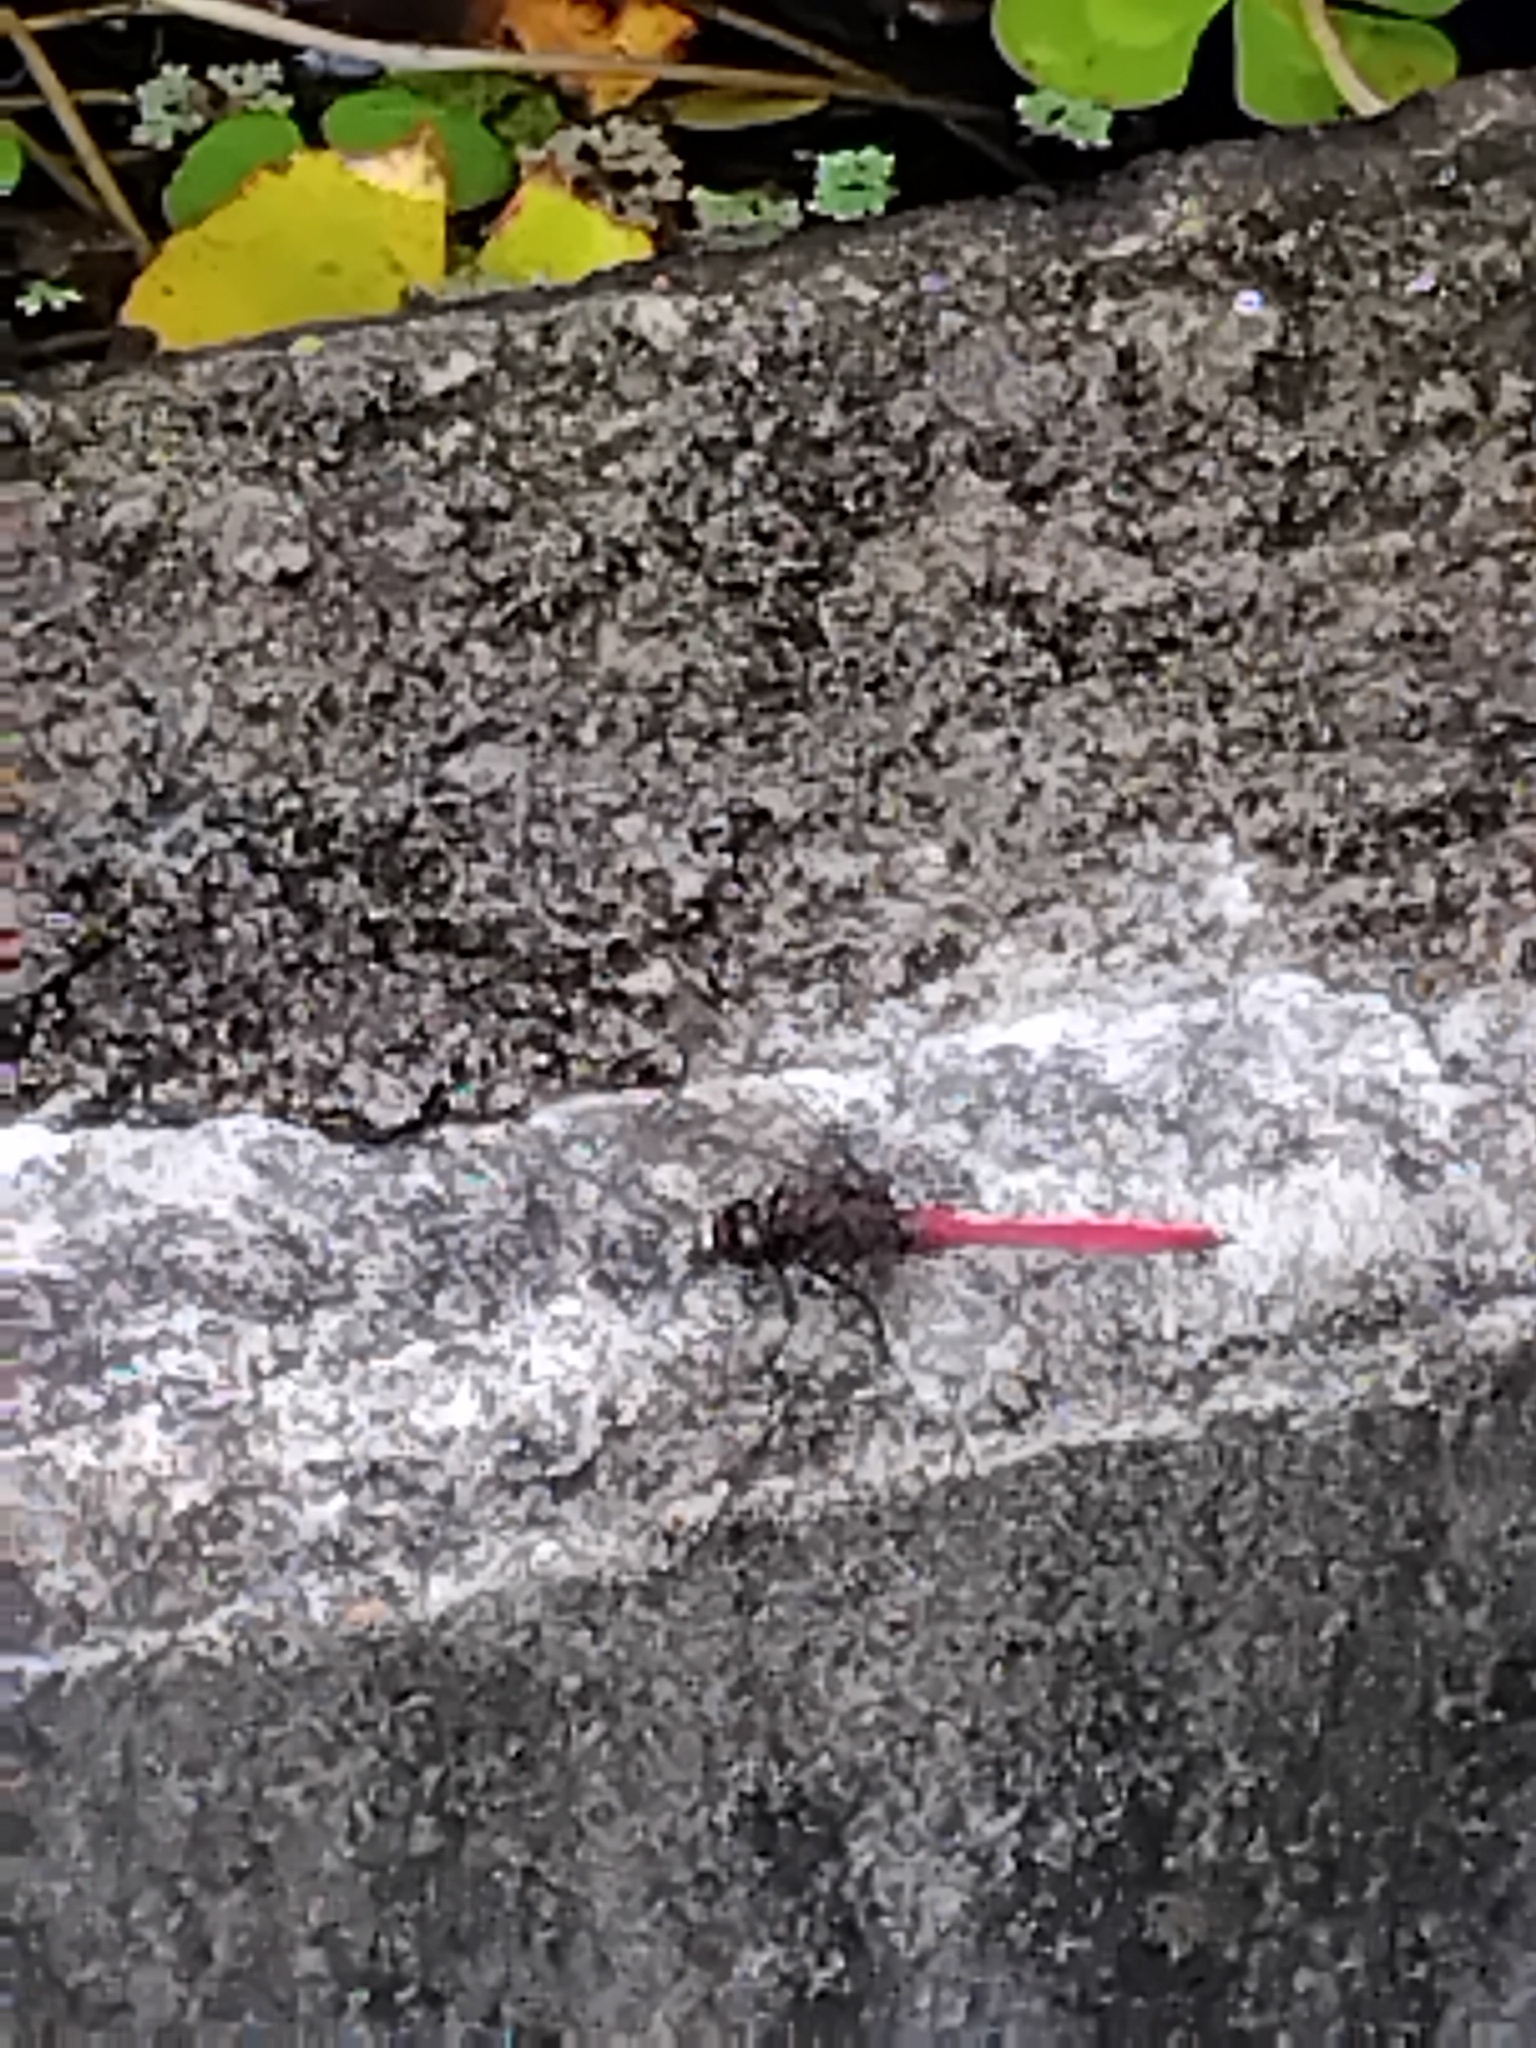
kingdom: Animalia
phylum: Arthropoda
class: Insecta
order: Odonata
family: Libellulidae
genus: Orthetrum
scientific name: Orthetrum villosovittatum
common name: Firery skimmer
